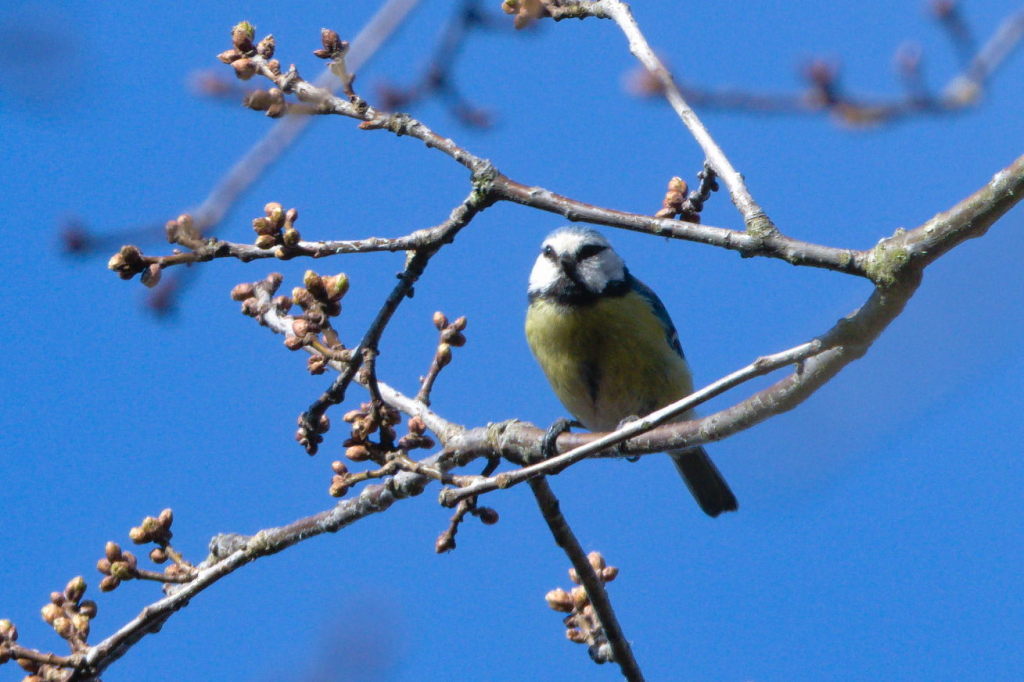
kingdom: Animalia
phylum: Chordata
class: Aves
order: Passeriformes
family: Paridae
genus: Cyanistes
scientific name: Cyanistes caeruleus
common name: Eurasian blue tit
